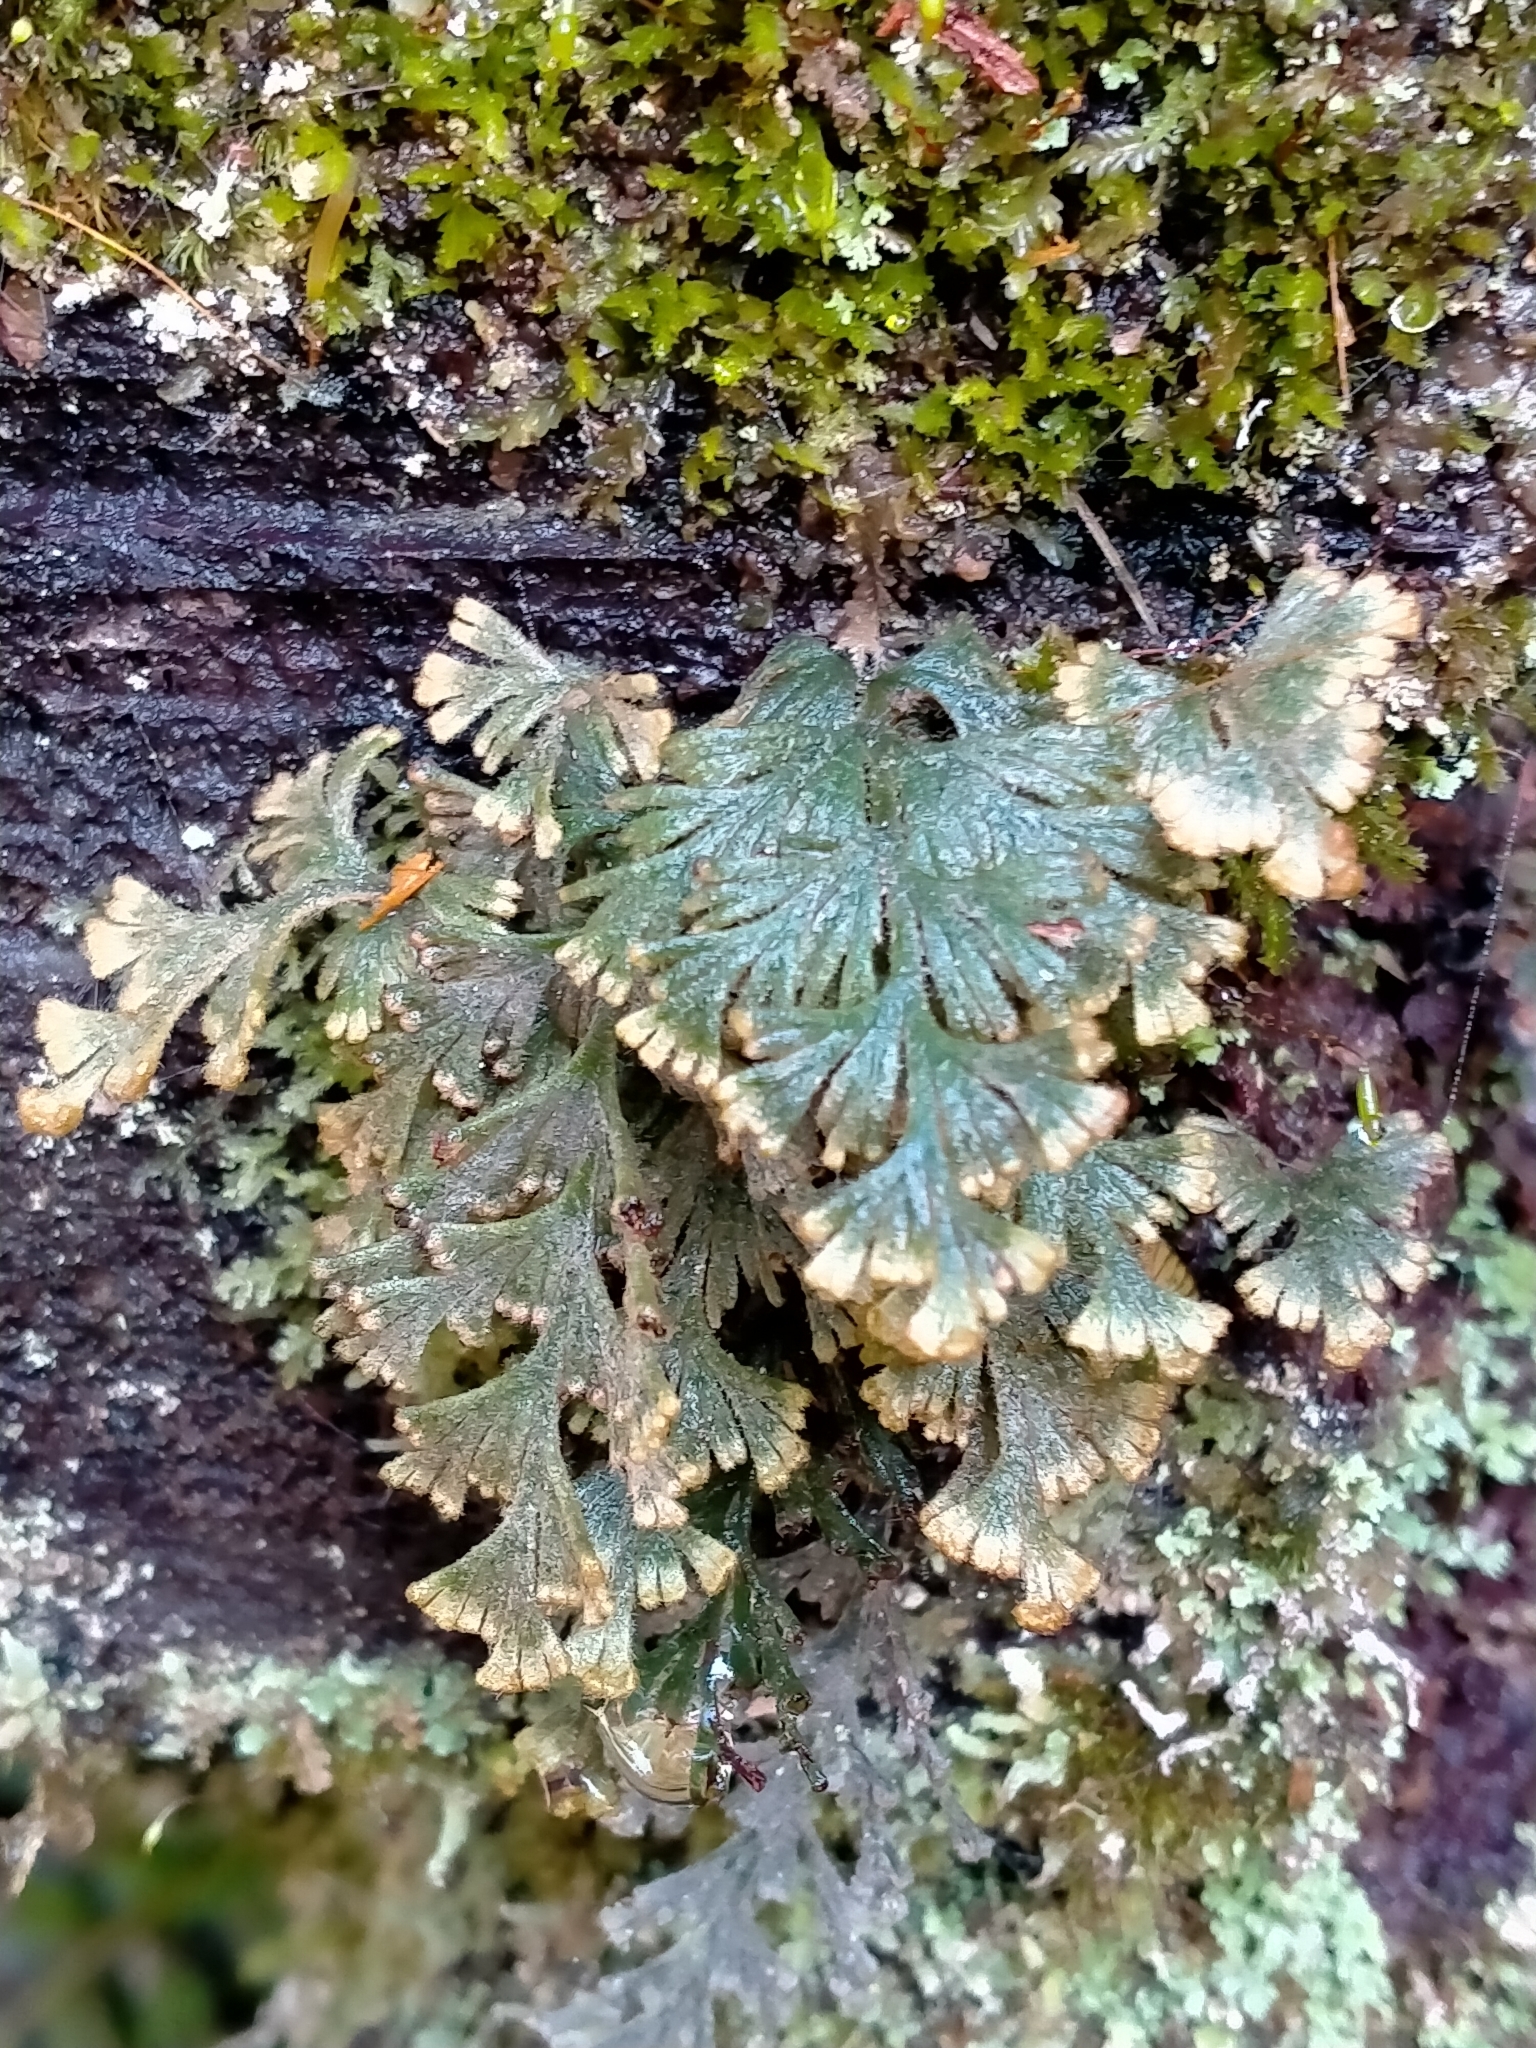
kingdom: Plantae
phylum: Tracheophyta
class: Polypodiopsida
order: Hymenophyllales
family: Hymenophyllaceae
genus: Hymenophyllum
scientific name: Hymenophyllum malingii
